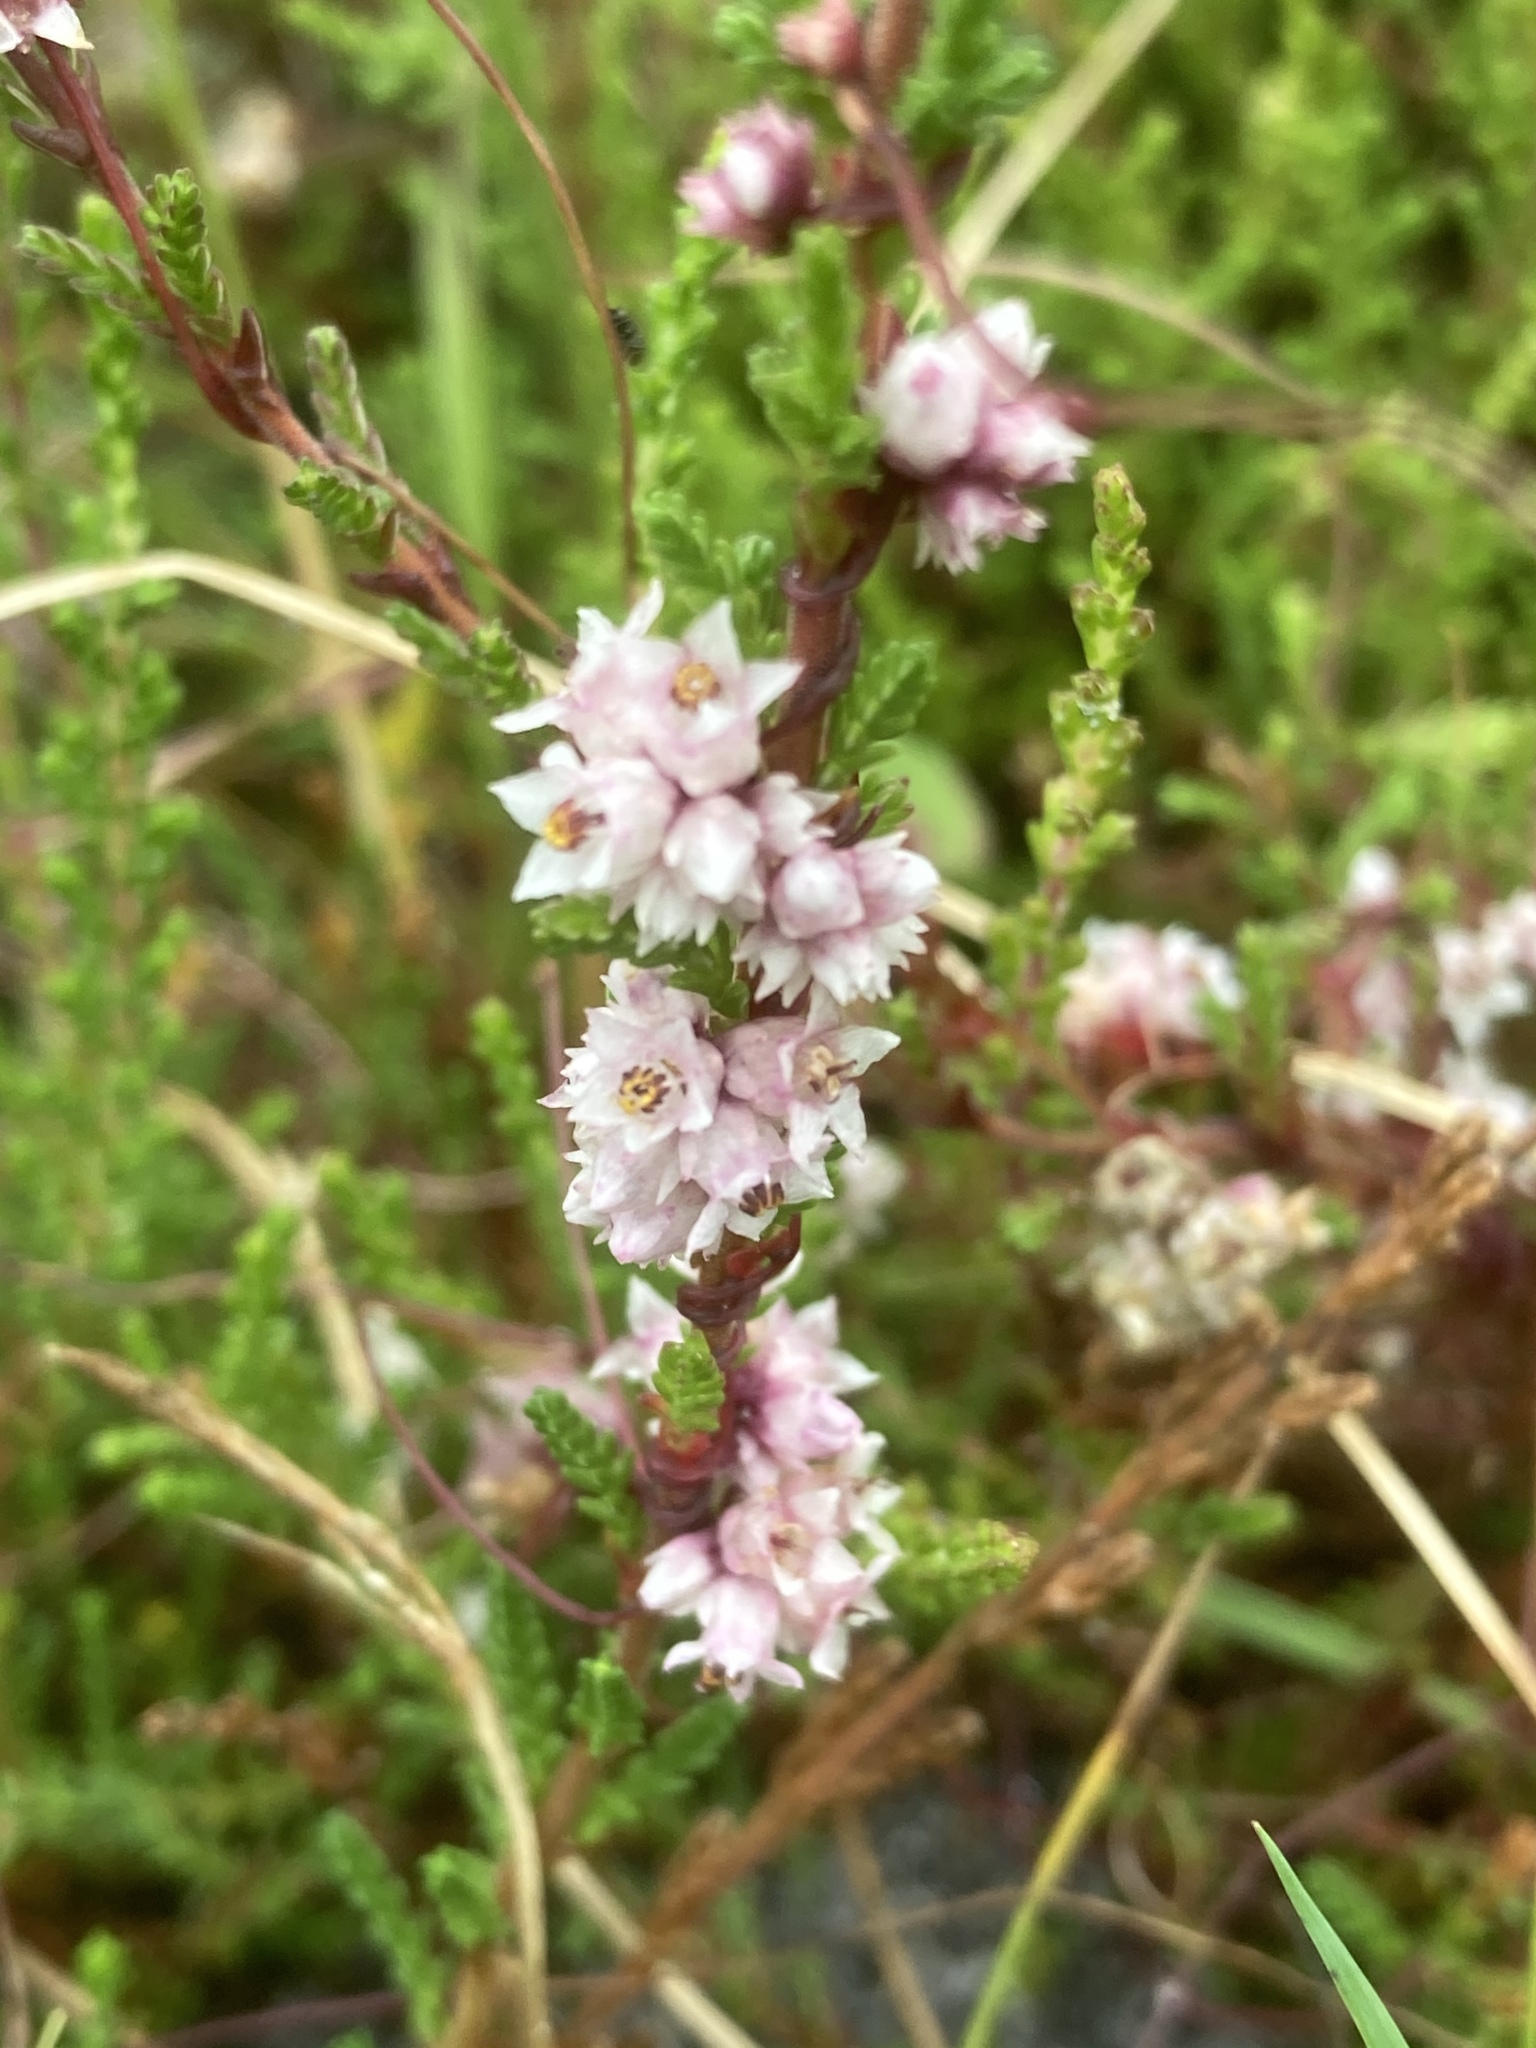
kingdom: Plantae
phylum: Tracheophyta
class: Magnoliopsida
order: Solanales
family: Convolvulaceae
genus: Cuscuta
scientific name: Cuscuta epithymum
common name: Clover dodder
